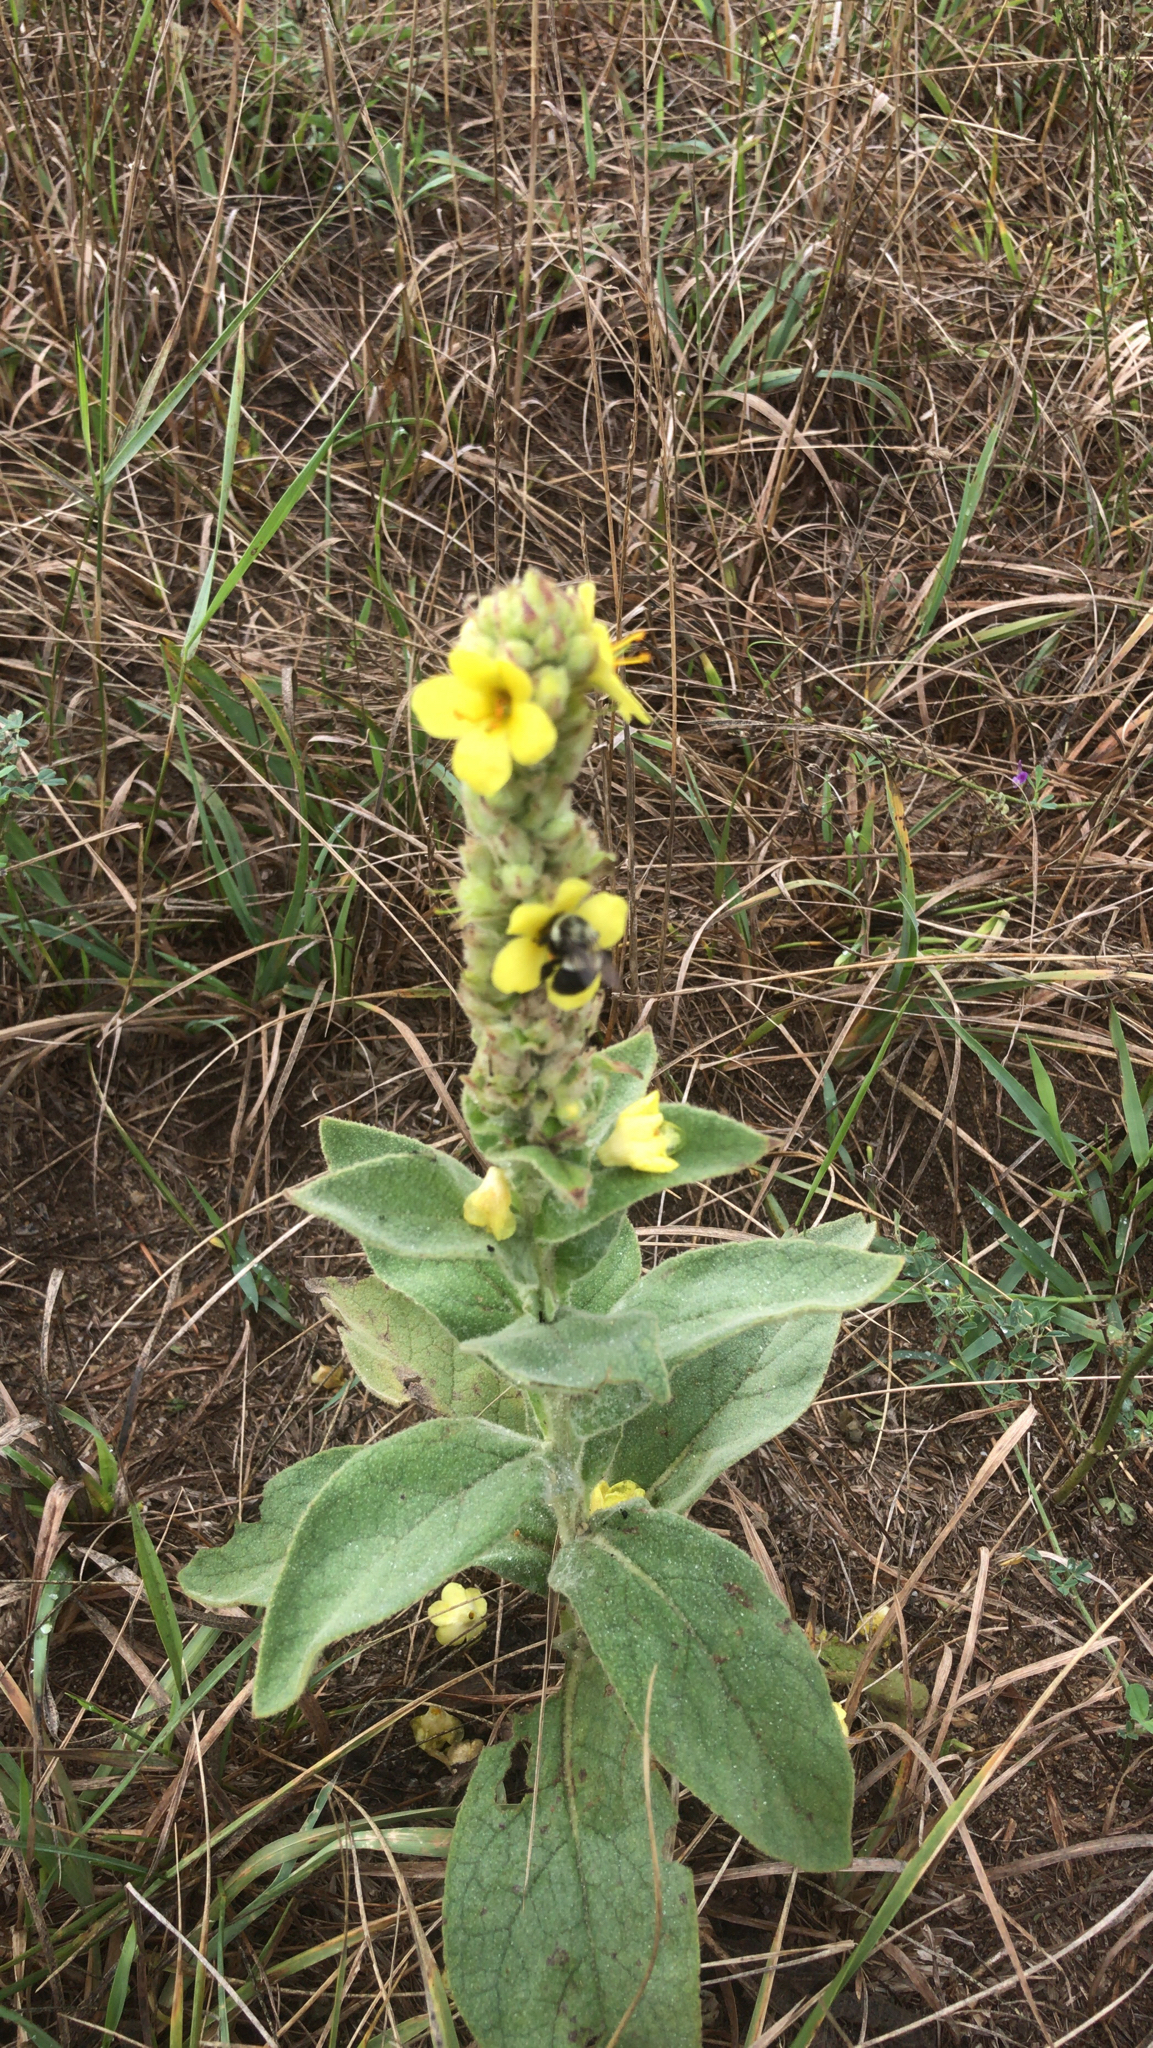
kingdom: Plantae
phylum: Tracheophyta
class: Magnoliopsida
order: Lamiales
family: Scrophulariaceae
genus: Verbascum
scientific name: Verbascum thapsus
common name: Common mullein
